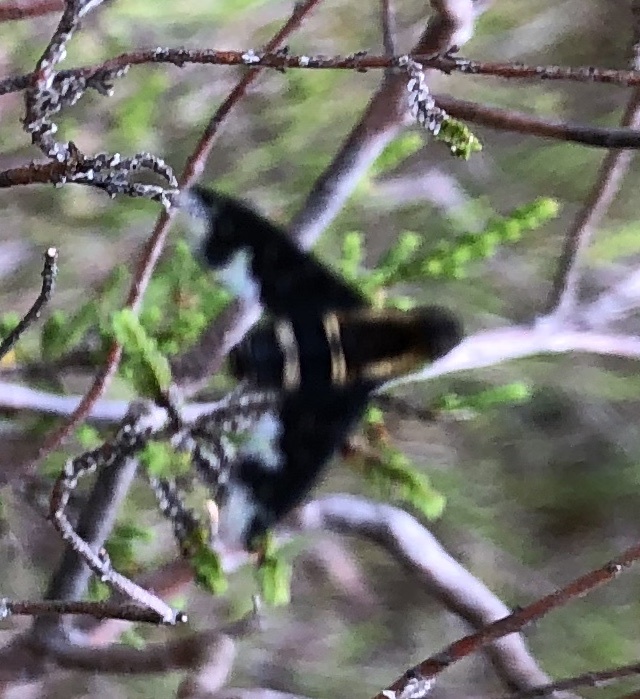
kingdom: Animalia
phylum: Arthropoda
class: Insecta
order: Diptera
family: Bombyliidae
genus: Hemipenthes
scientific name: Hemipenthes maura
